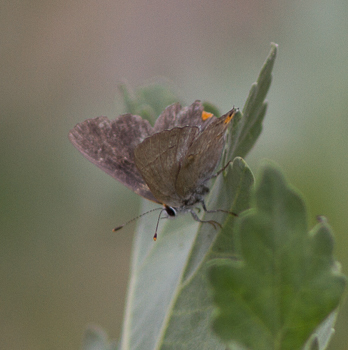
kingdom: Animalia
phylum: Arthropoda
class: Insecta
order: Lepidoptera
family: Lycaenidae
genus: Strymon
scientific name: Strymon melinus
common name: Gray hairstreak
